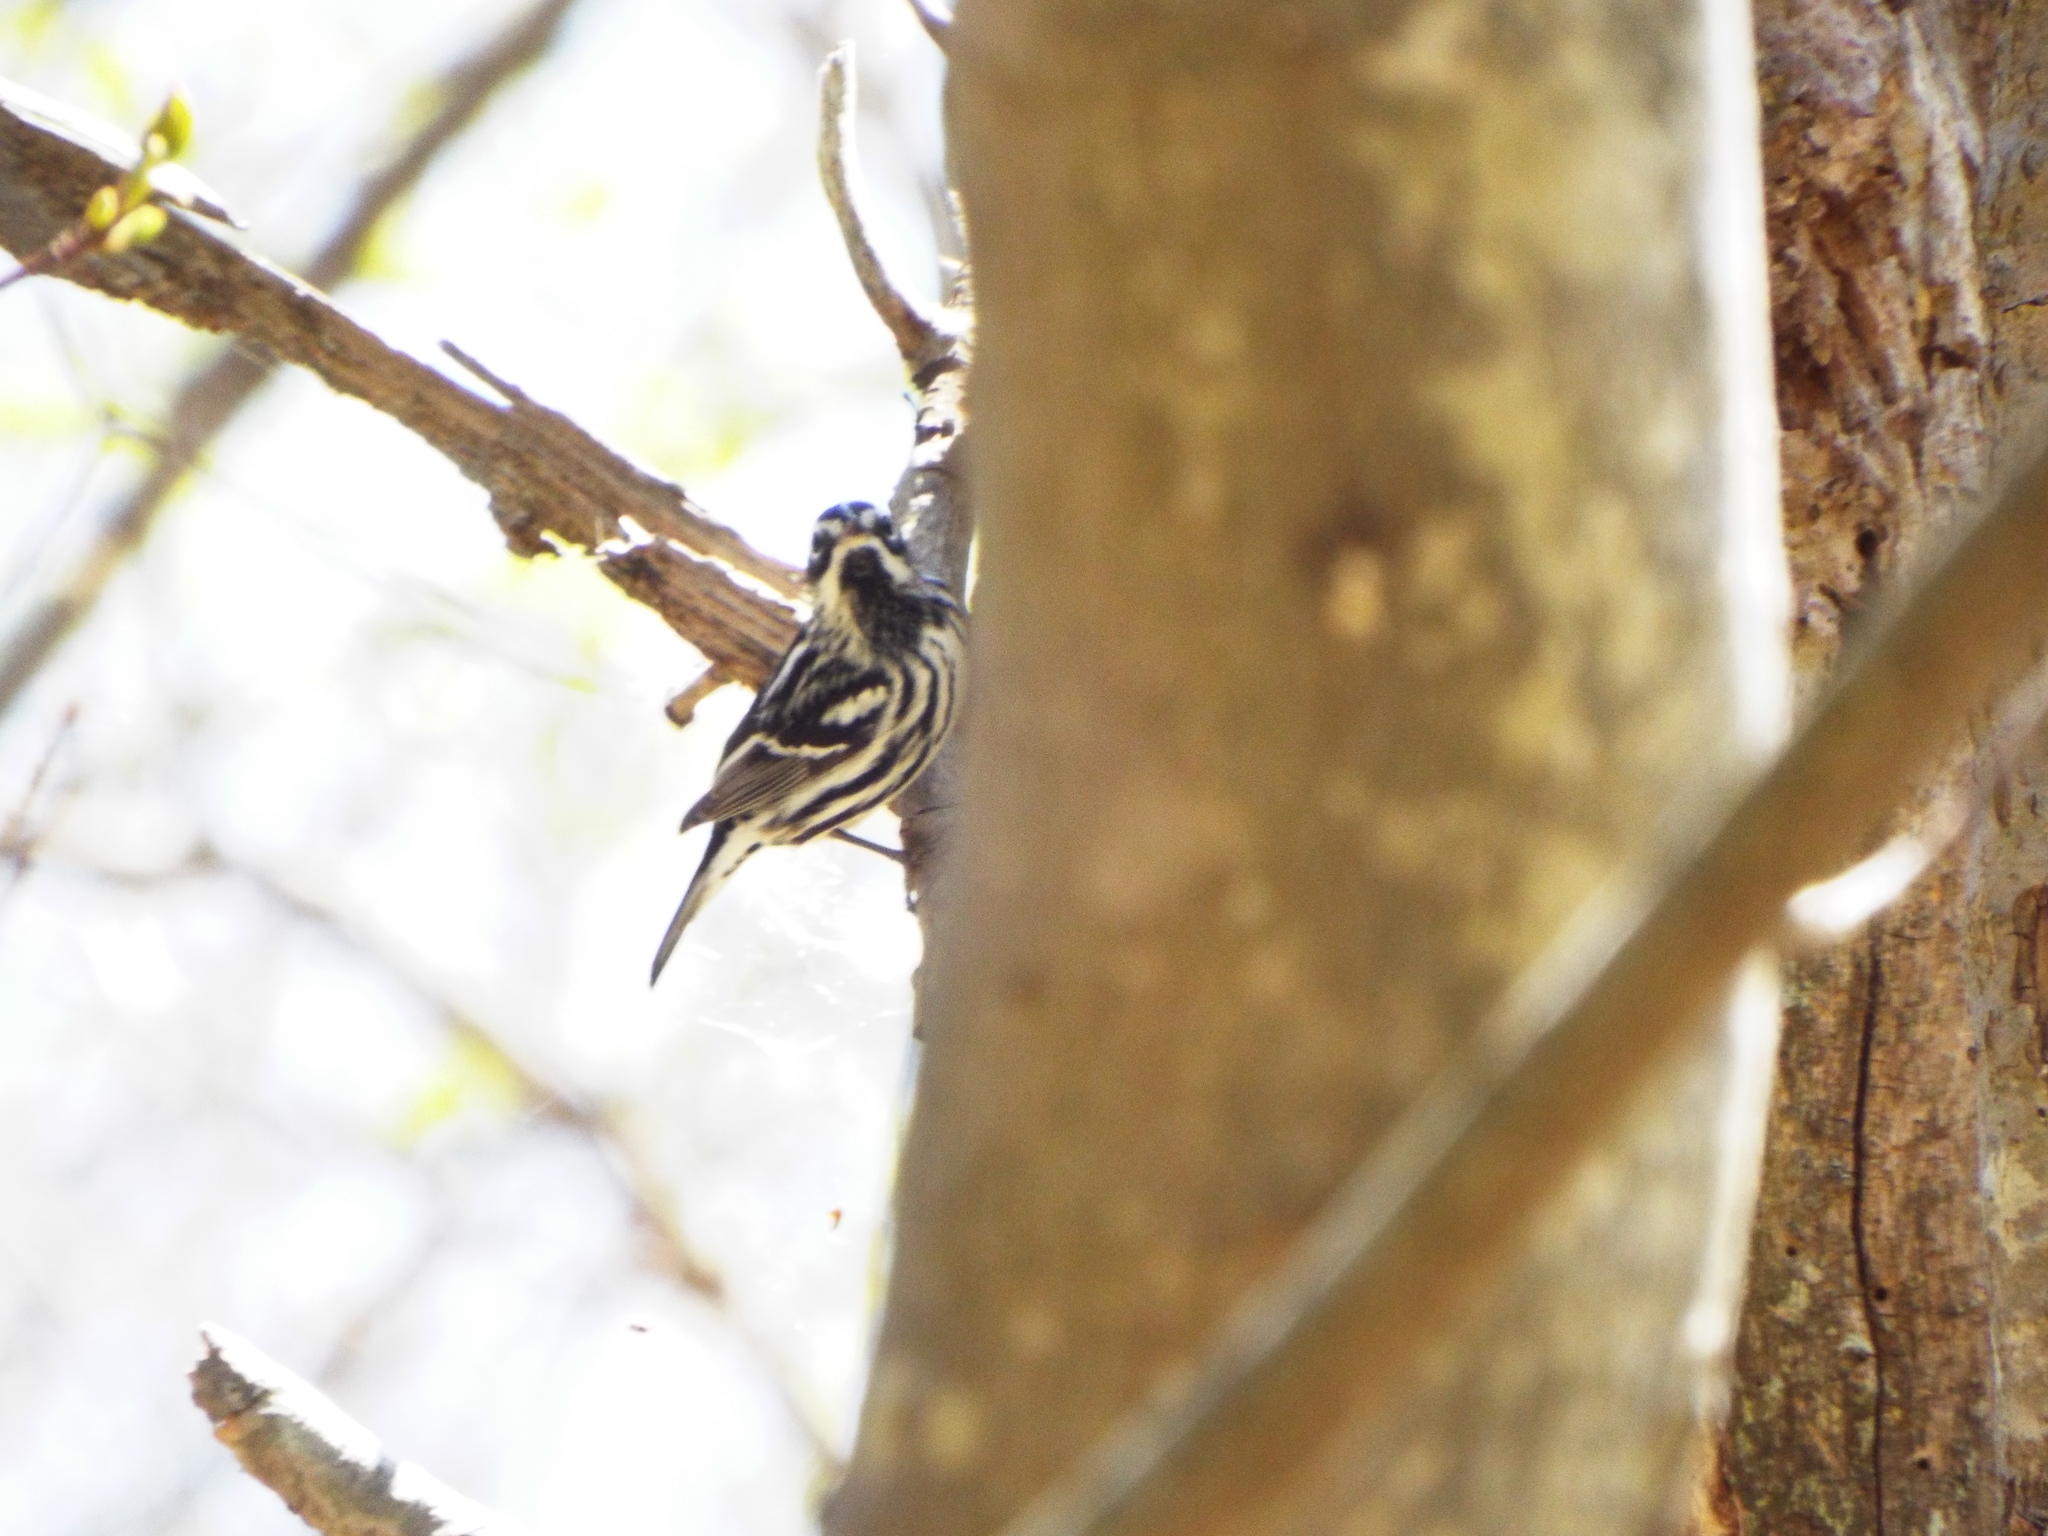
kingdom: Animalia
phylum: Chordata
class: Aves
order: Passeriformes
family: Parulidae
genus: Mniotilta
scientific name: Mniotilta varia
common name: Black-and-white warbler
